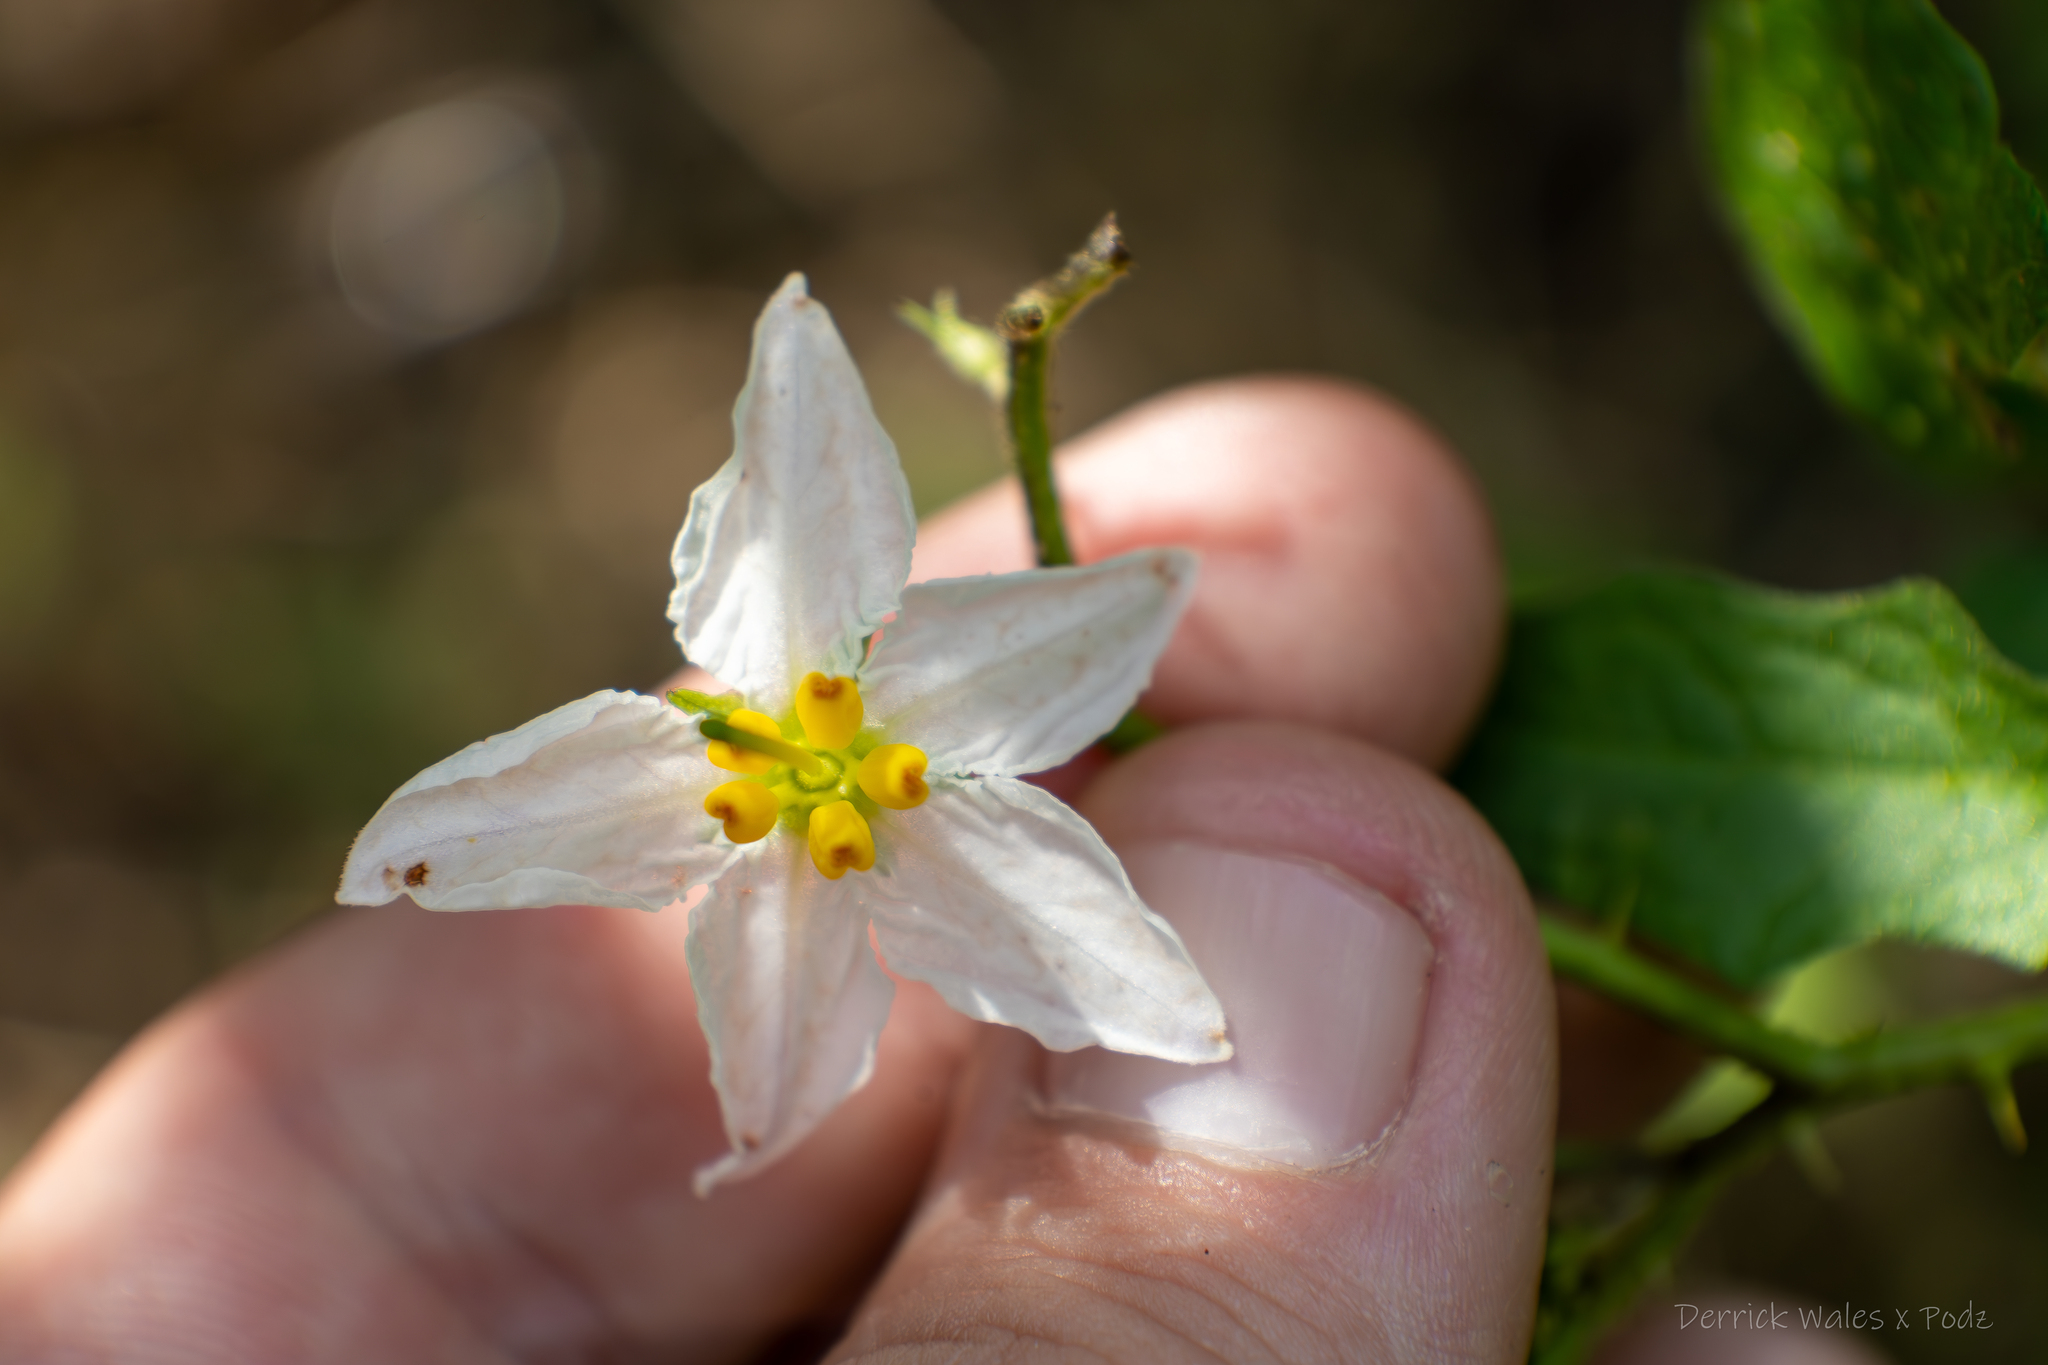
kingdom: Plantae
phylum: Tracheophyta
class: Magnoliopsida
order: Solanales
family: Solanaceae
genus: Solanum
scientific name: Solanum carolinense
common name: Horse-nettle
